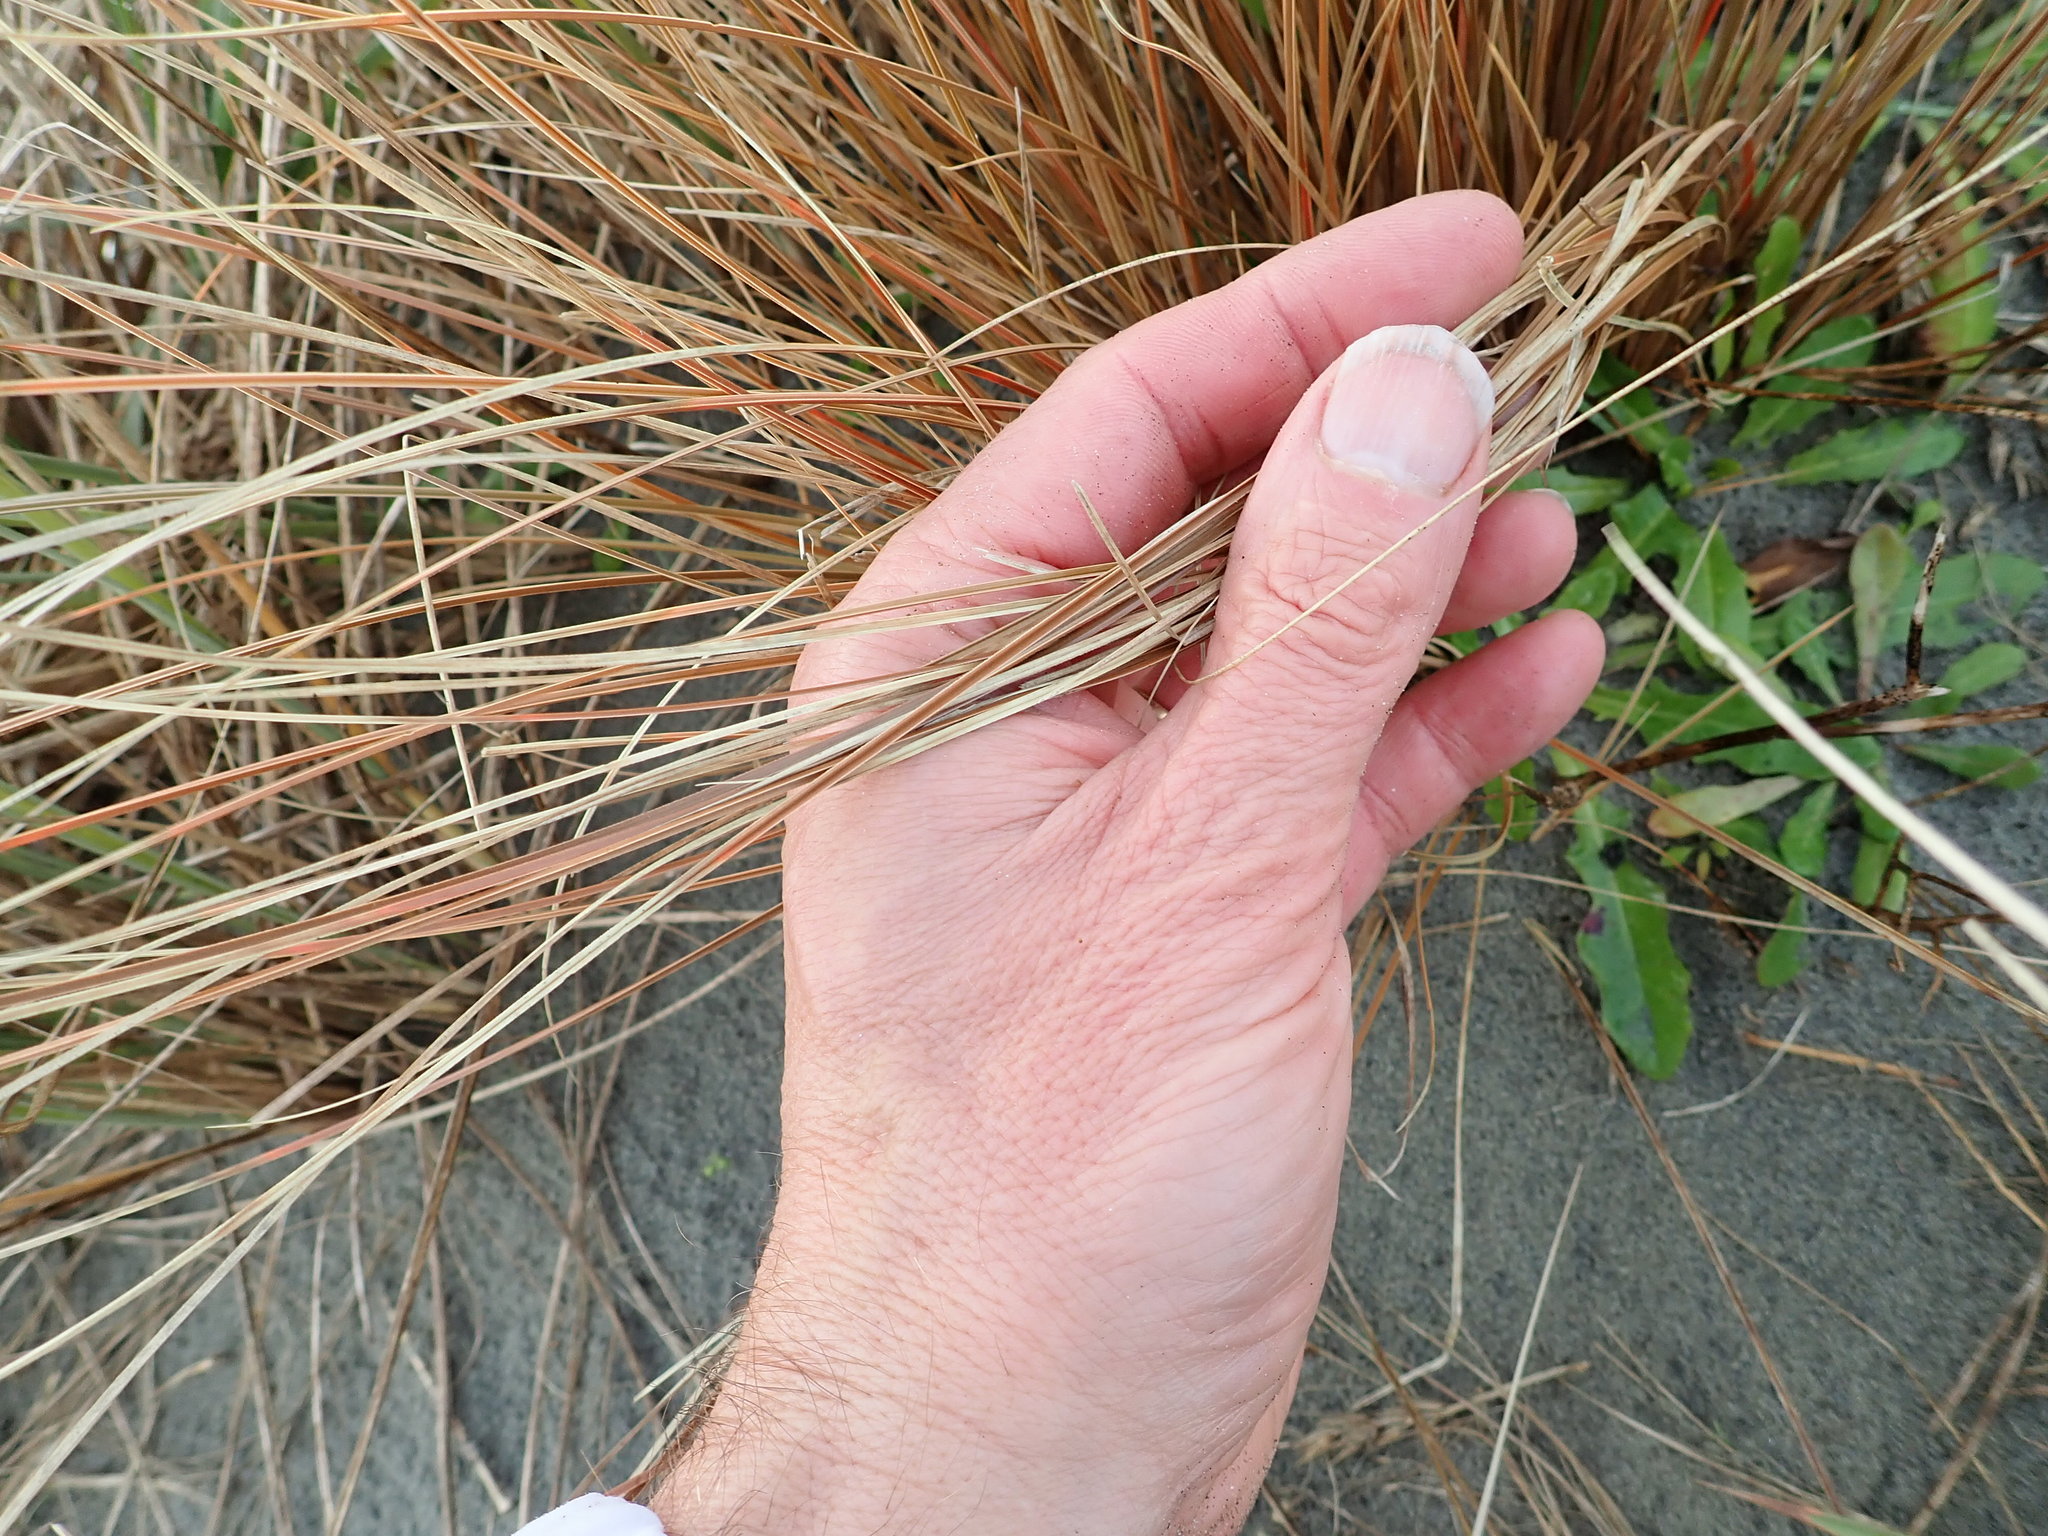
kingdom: Plantae
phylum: Tracheophyta
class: Liliopsida
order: Poales
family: Cyperaceae
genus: Carex
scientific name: Carex testacea
